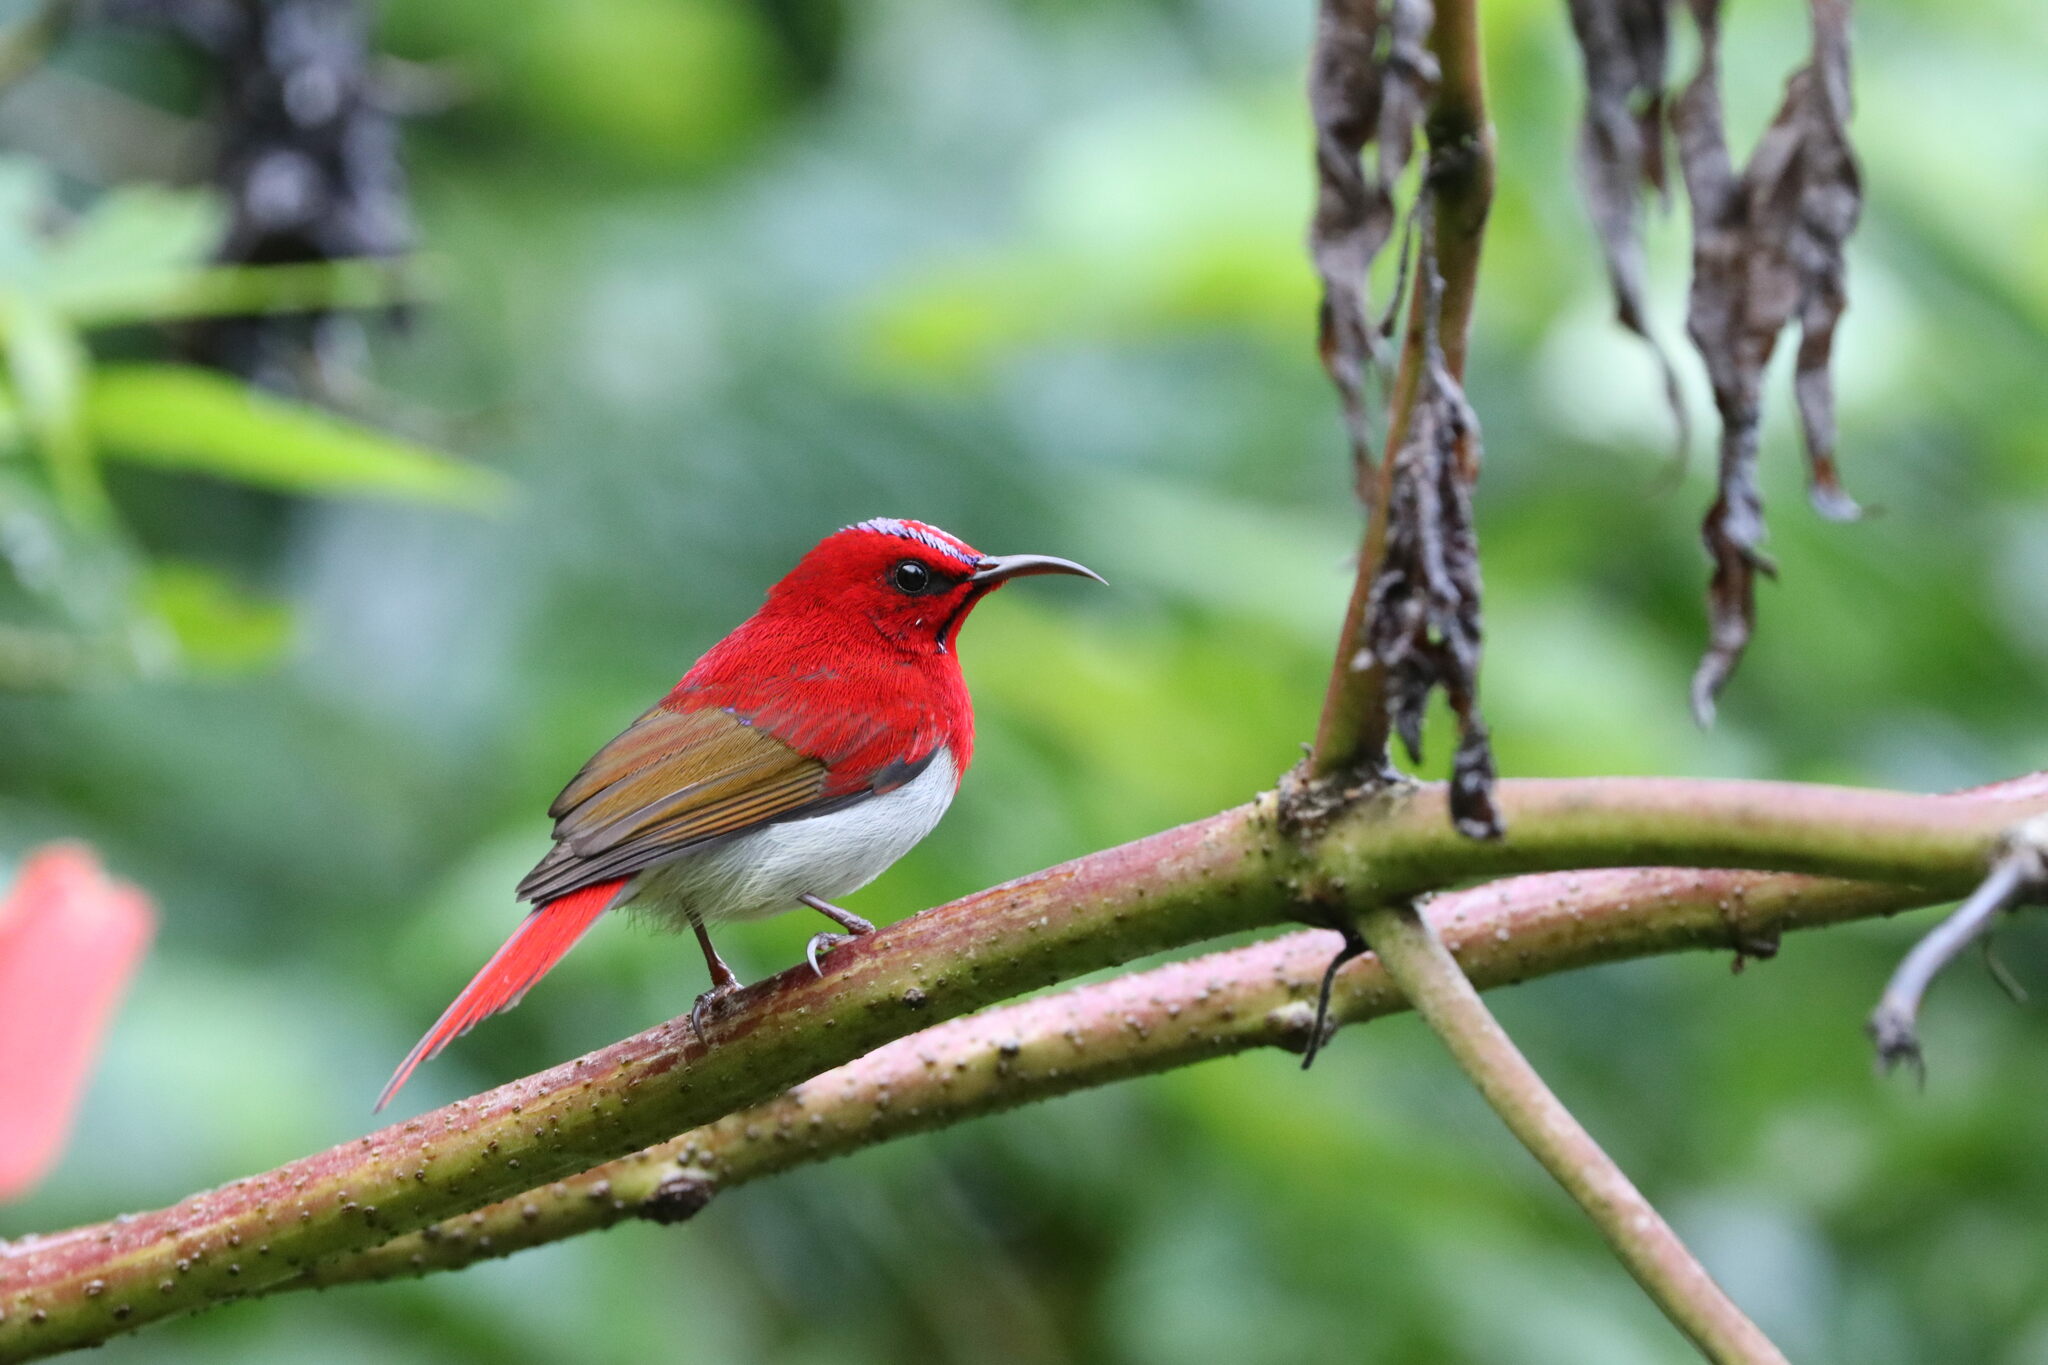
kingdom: Animalia
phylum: Chordata
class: Aves
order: Passeriformes
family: Nectariniidae
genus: Aethopyga
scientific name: Aethopyga temminckii
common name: Temminck's sunbird
